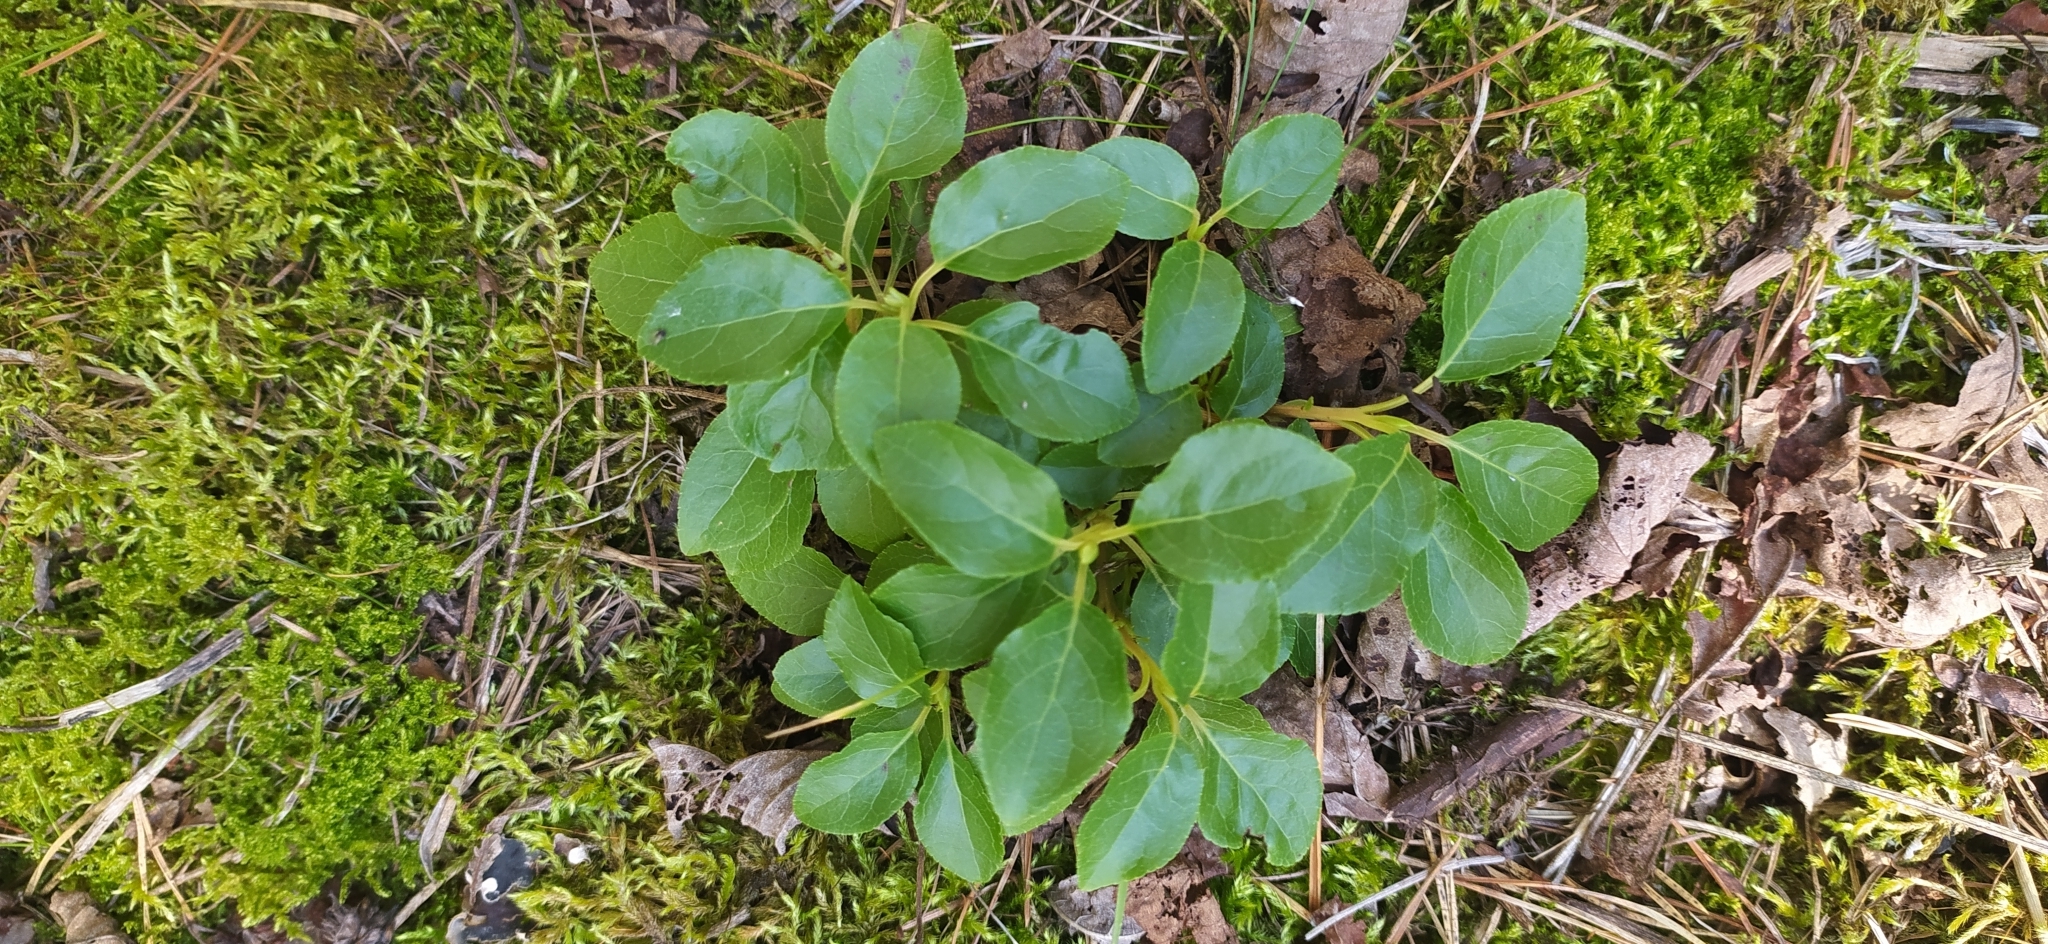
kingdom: Plantae
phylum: Tracheophyta
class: Magnoliopsida
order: Ericales
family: Ericaceae
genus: Orthilia
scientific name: Orthilia secunda
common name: One-sided orthilia
